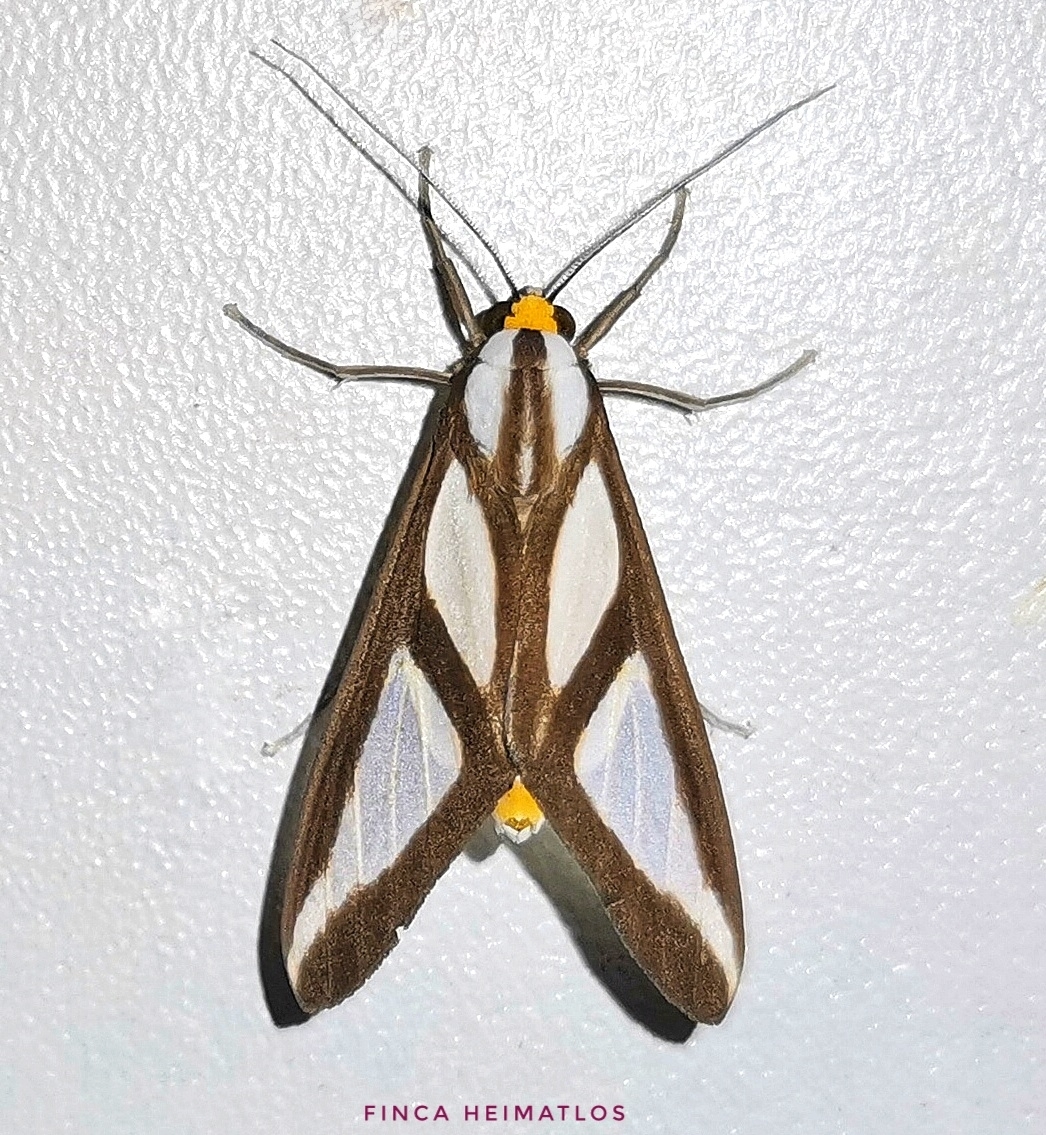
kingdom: Animalia
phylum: Arthropoda
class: Insecta
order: Lepidoptera
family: Erebidae
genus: Robinsonia
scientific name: Robinsonia dewitzi
